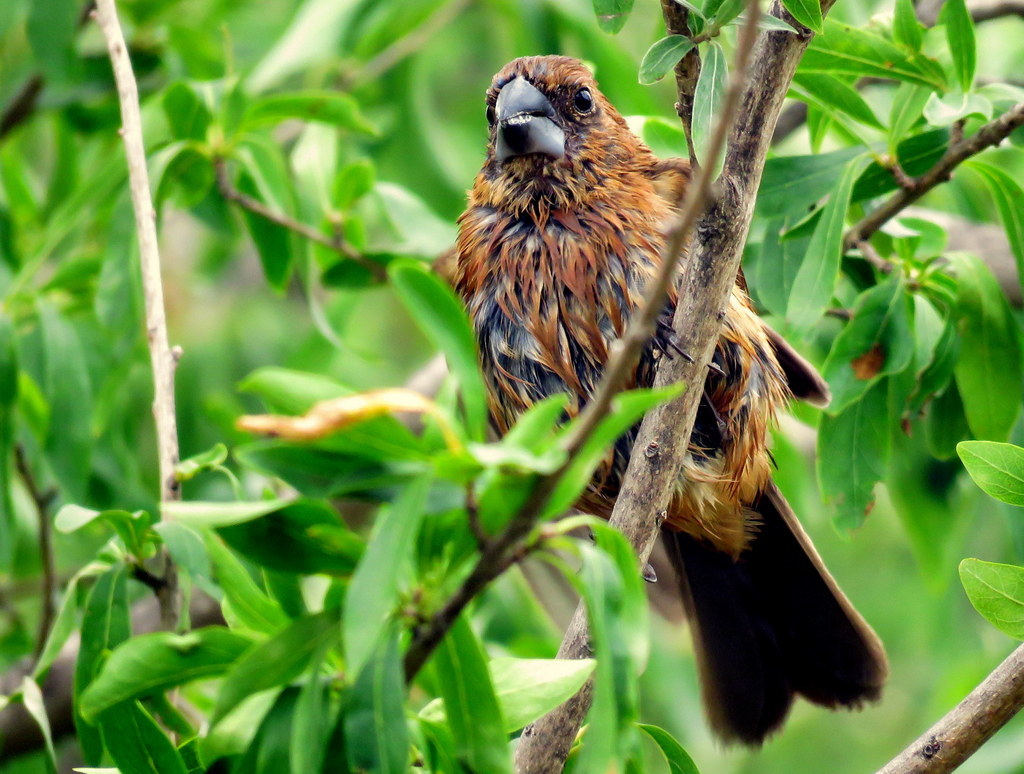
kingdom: Animalia
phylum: Chordata
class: Aves
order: Passeriformes
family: Cardinalidae
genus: Cyanoloxia
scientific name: Cyanoloxia brissonii
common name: Ultramarine grosbeak
